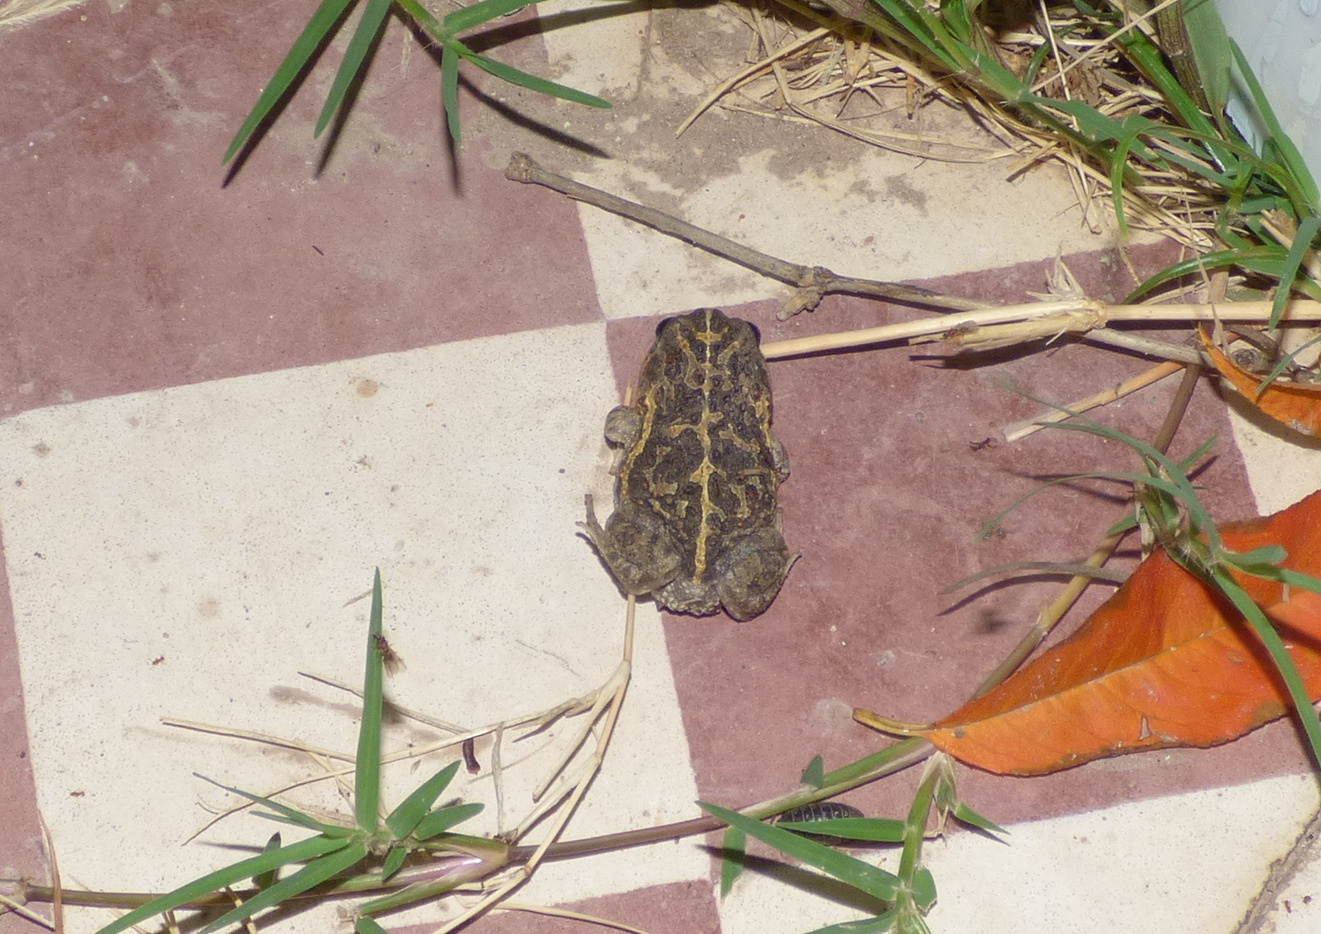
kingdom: Animalia
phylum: Chordata
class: Amphibia
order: Anura
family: Odontophrynidae
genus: Odontophrynus
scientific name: Odontophrynus
